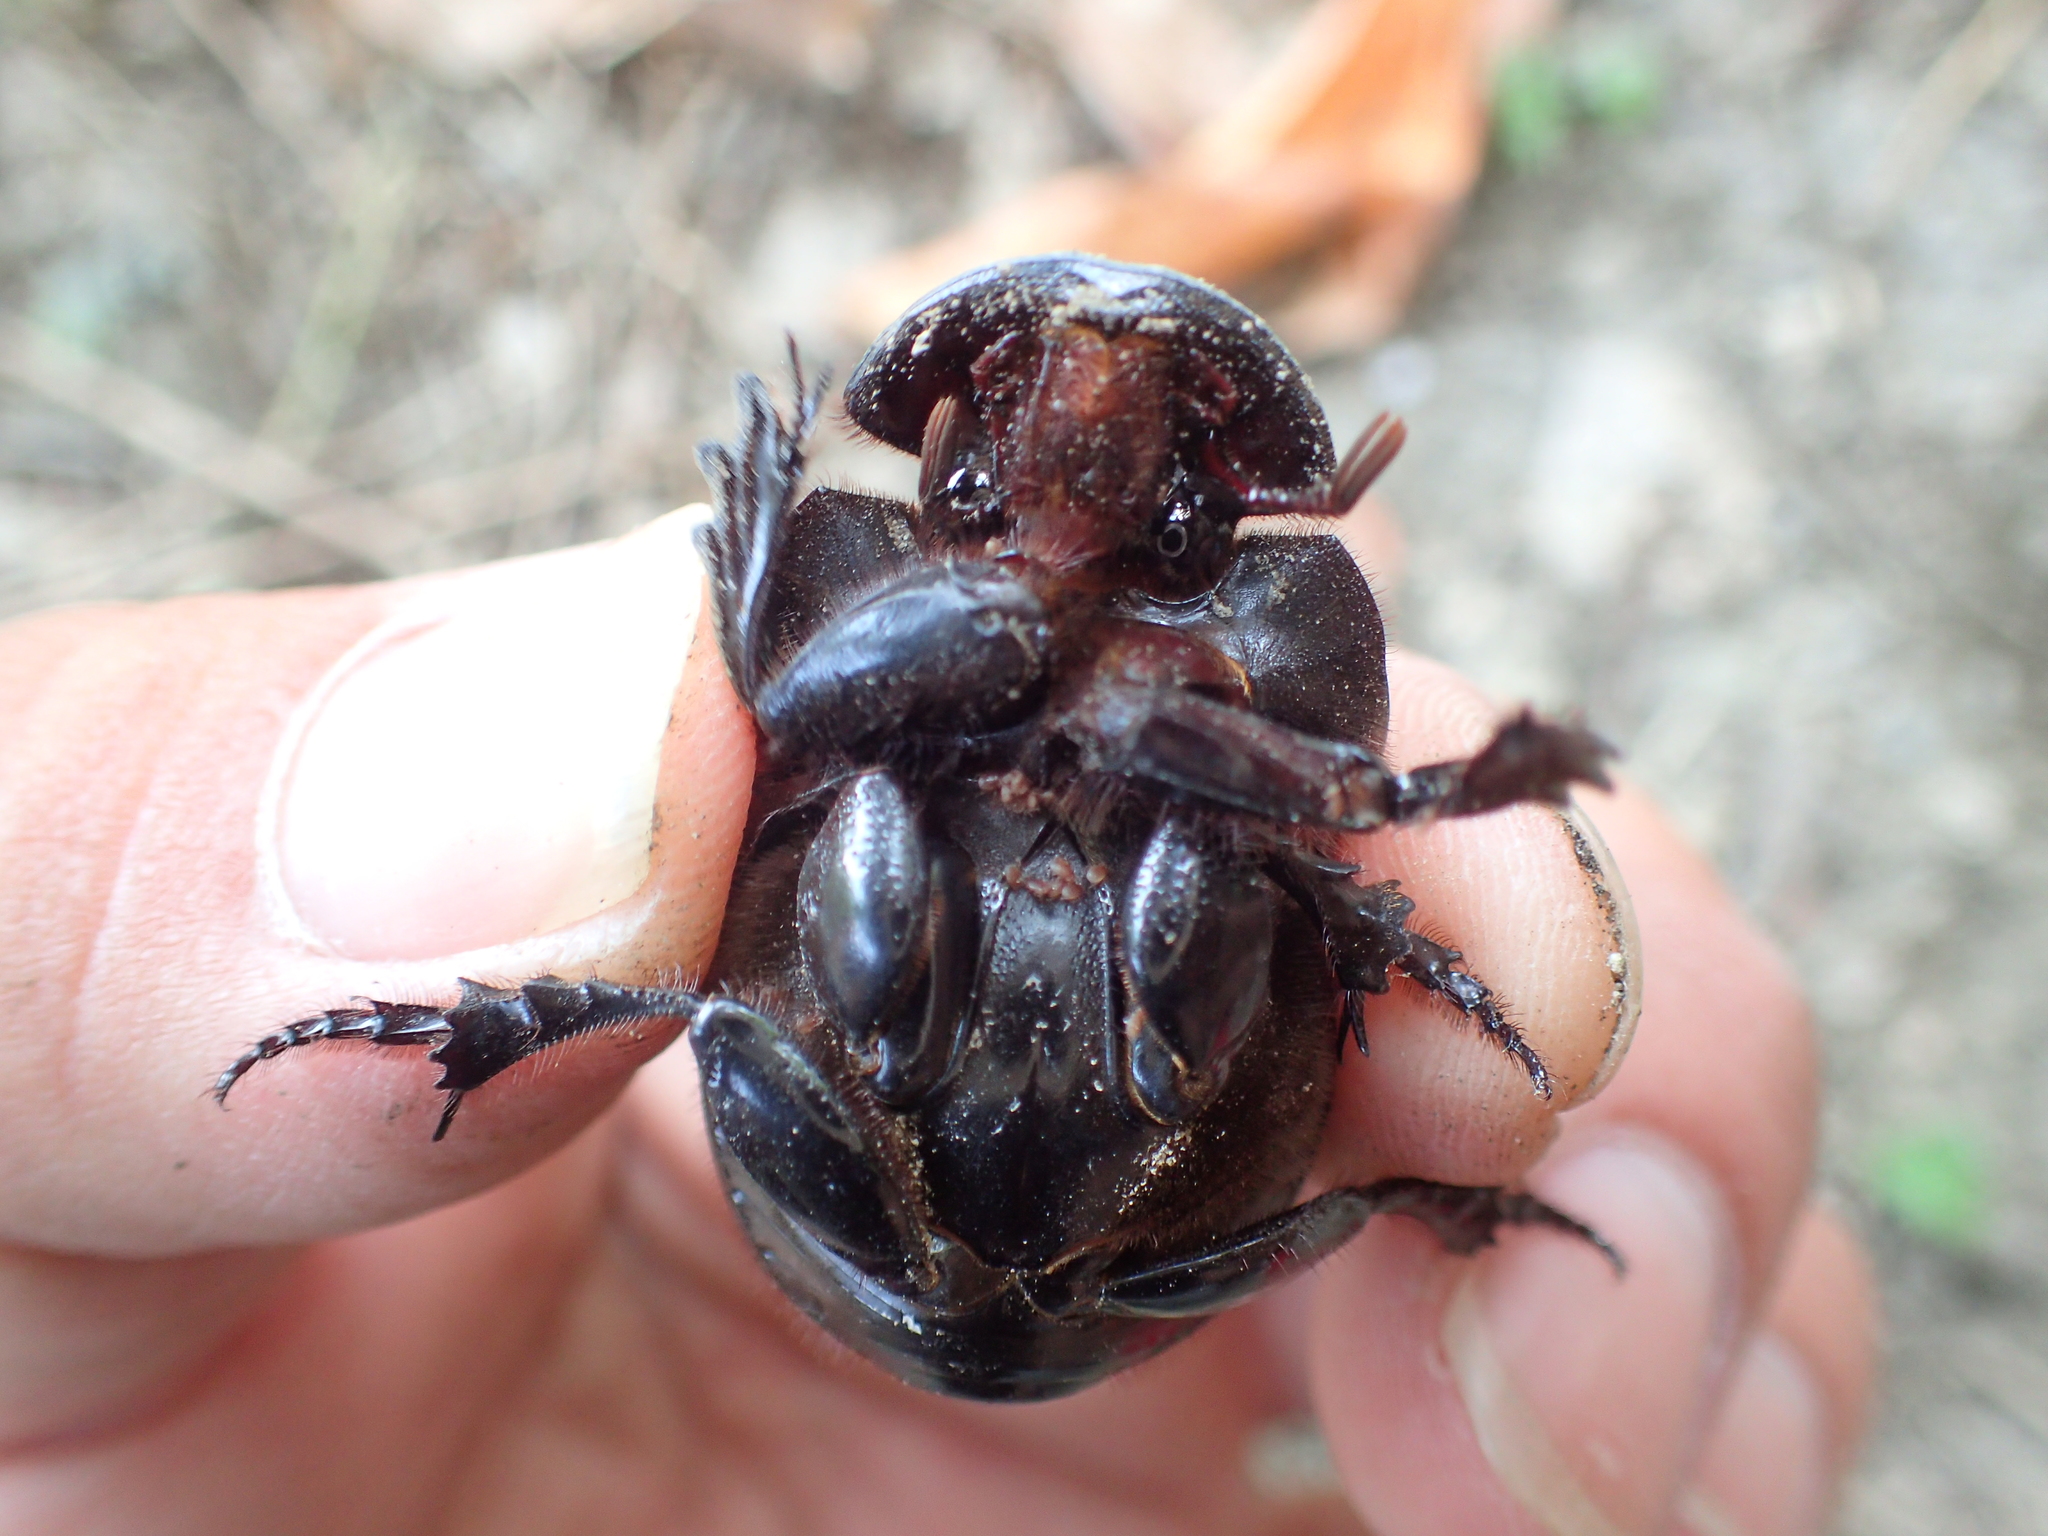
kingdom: Animalia
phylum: Arthropoda
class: Insecta
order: Coleoptera
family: Scarabaeidae
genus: Catharsius
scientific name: Catharsius molossus
